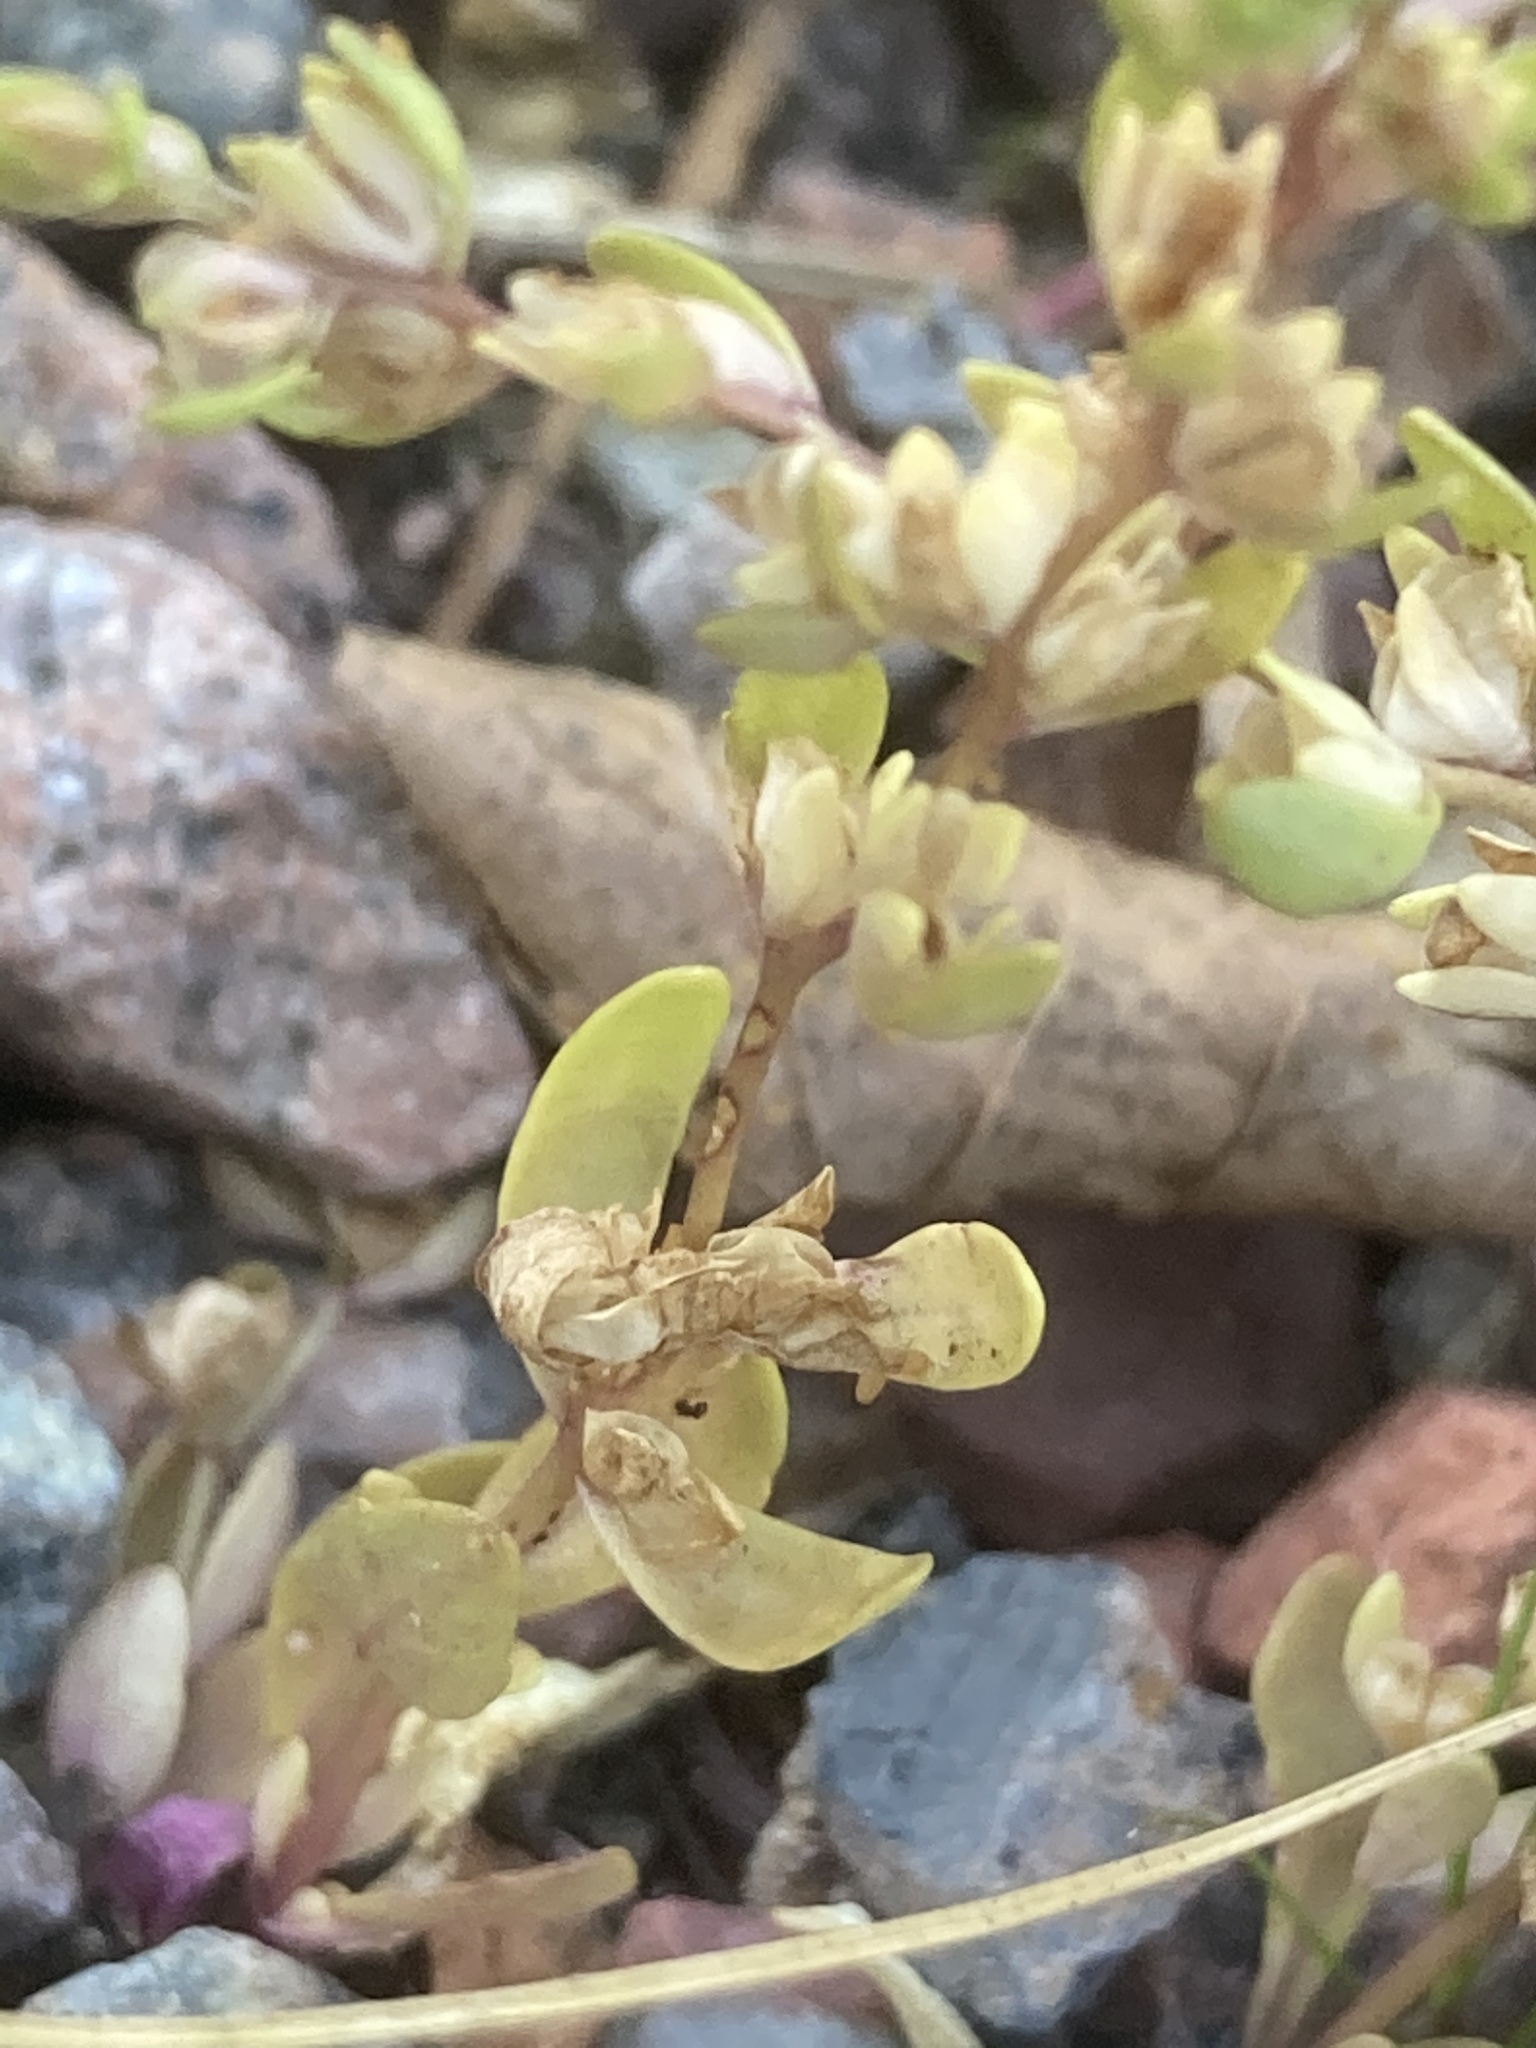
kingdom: Plantae
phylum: Tracheophyta
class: Magnoliopsida
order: Lamiales
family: Plantaginaceae
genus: Veronica
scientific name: Veronica peregrina
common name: Neckweed
